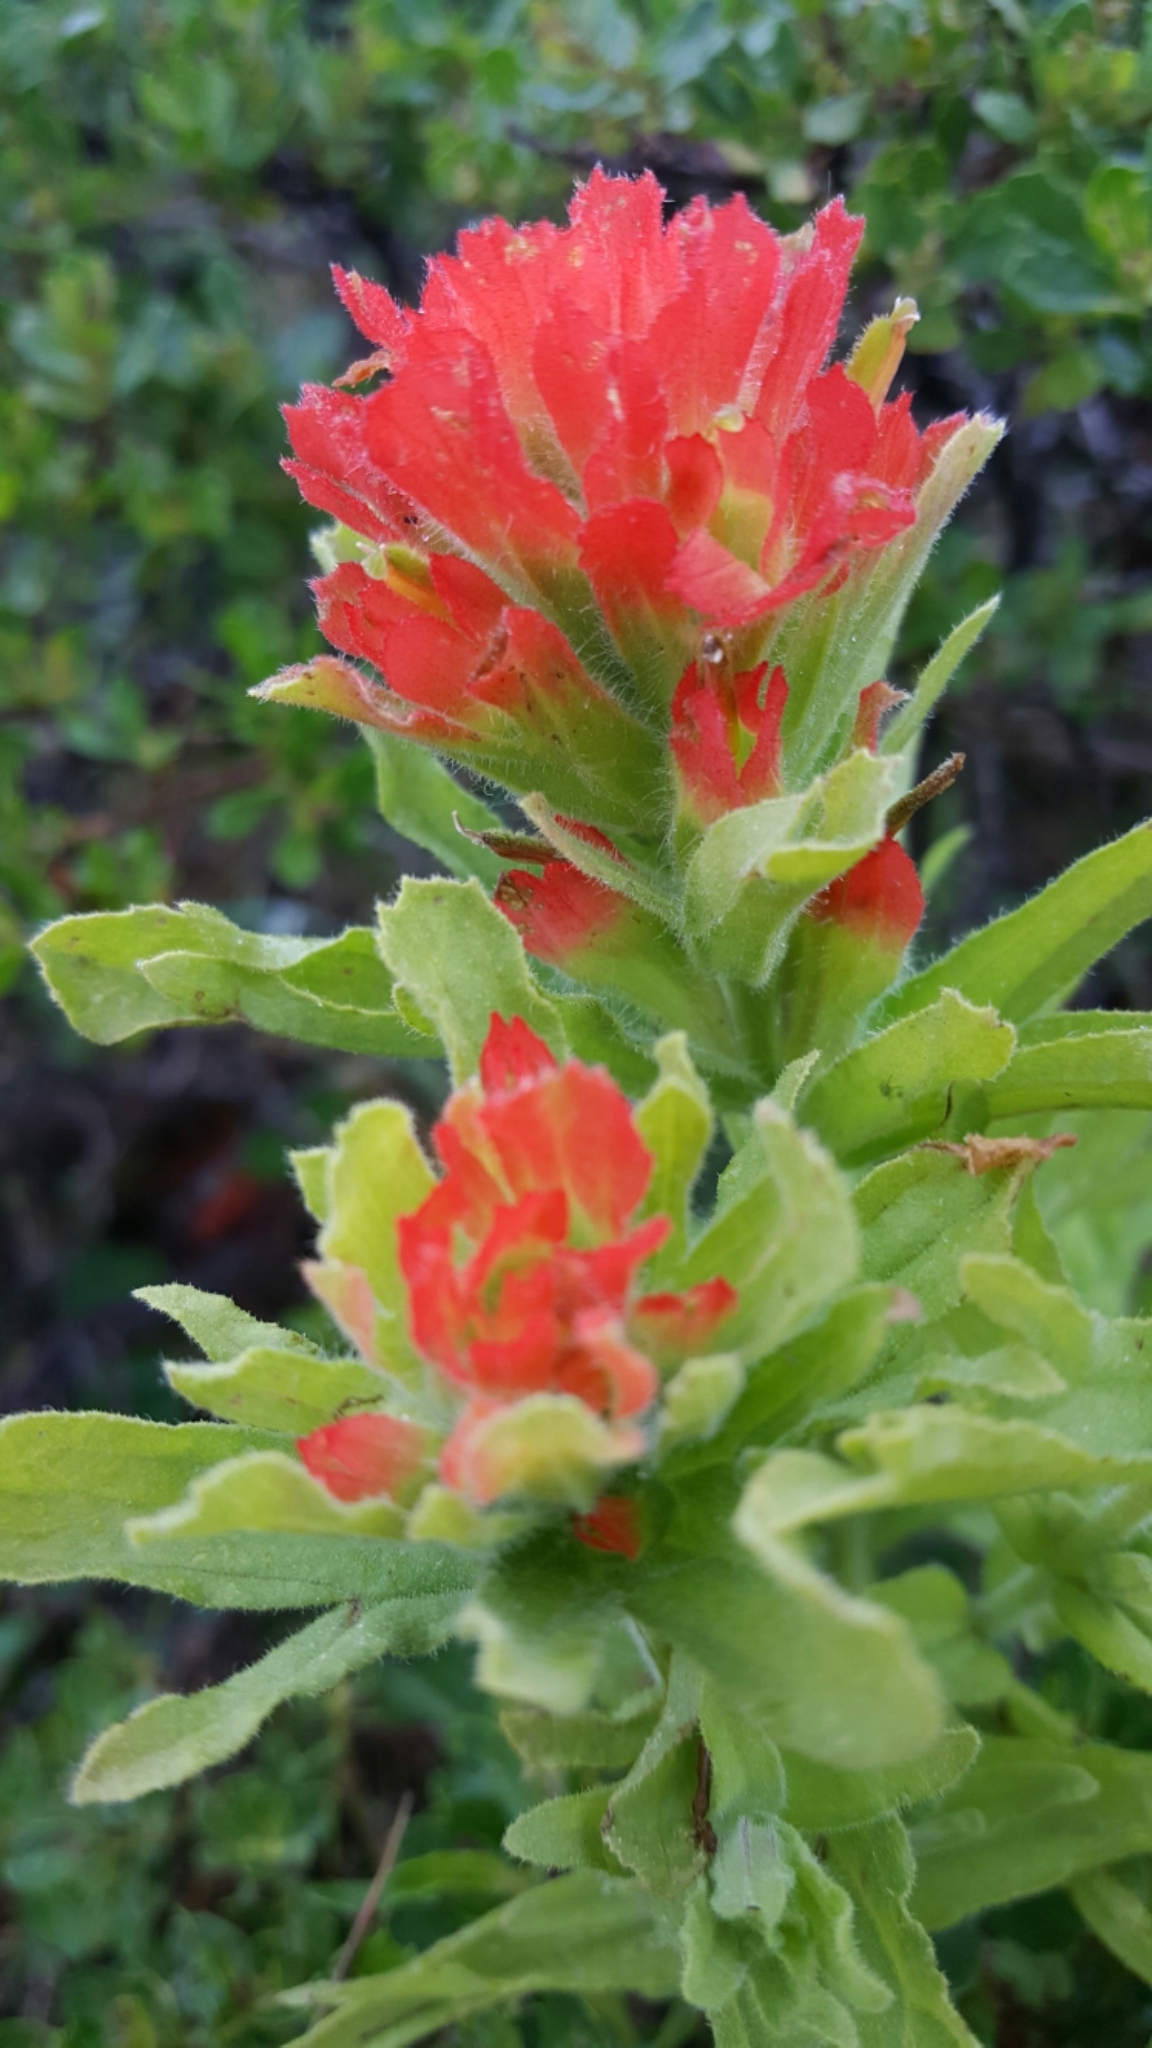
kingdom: Plantae
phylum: Tracheophyta
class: Magnoliopsida
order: Lamiales
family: Orobanchaceae
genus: Castilleja
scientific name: Castilleja wightii
